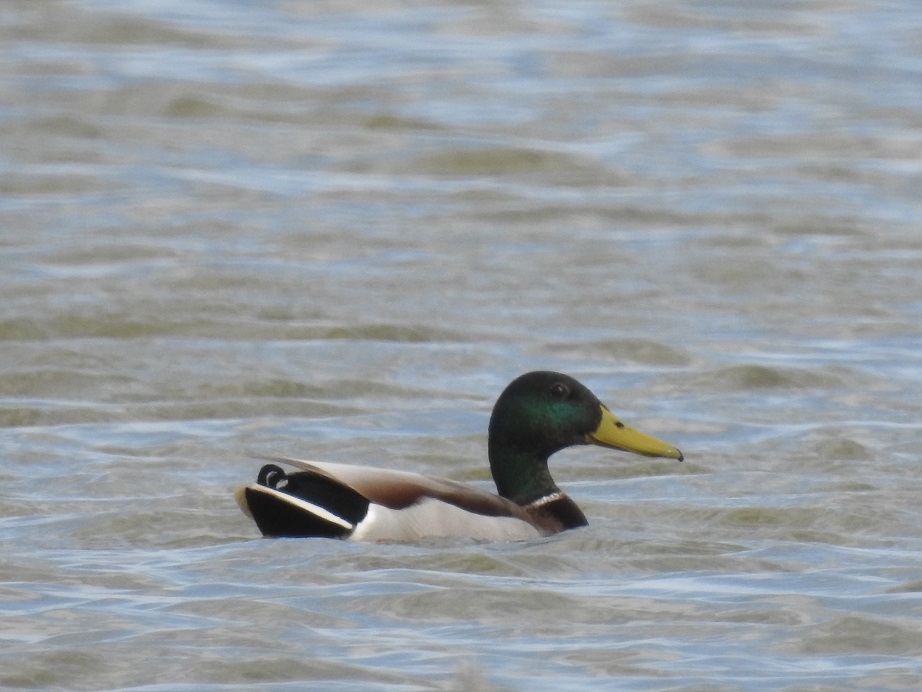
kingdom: Animalia
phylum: Chordata
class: Aves
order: Anseriformes
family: Anatidae
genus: Anas
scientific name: Anas platyrhynchos
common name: Mallard
